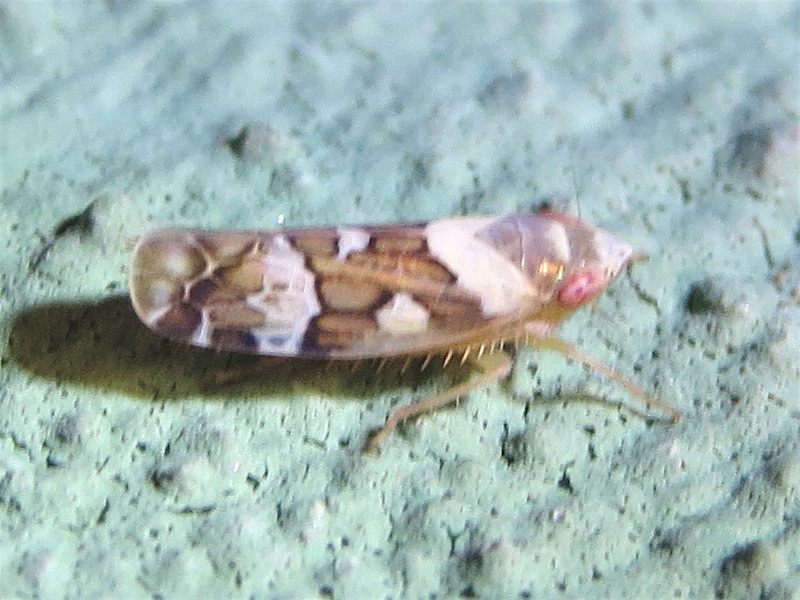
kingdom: Animalia
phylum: Arthropoda
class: Insecta
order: Hemiptera
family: Cicadellidae
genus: Sanctanus
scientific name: Sanctanus sanctus
